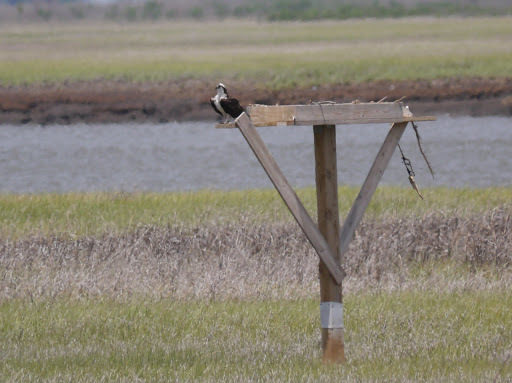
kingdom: Animalia
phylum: Chordata
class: Aves
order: Accipitriformes
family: Pandionidae
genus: Pandion
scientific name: Pandion haliaetus
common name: Osprey
